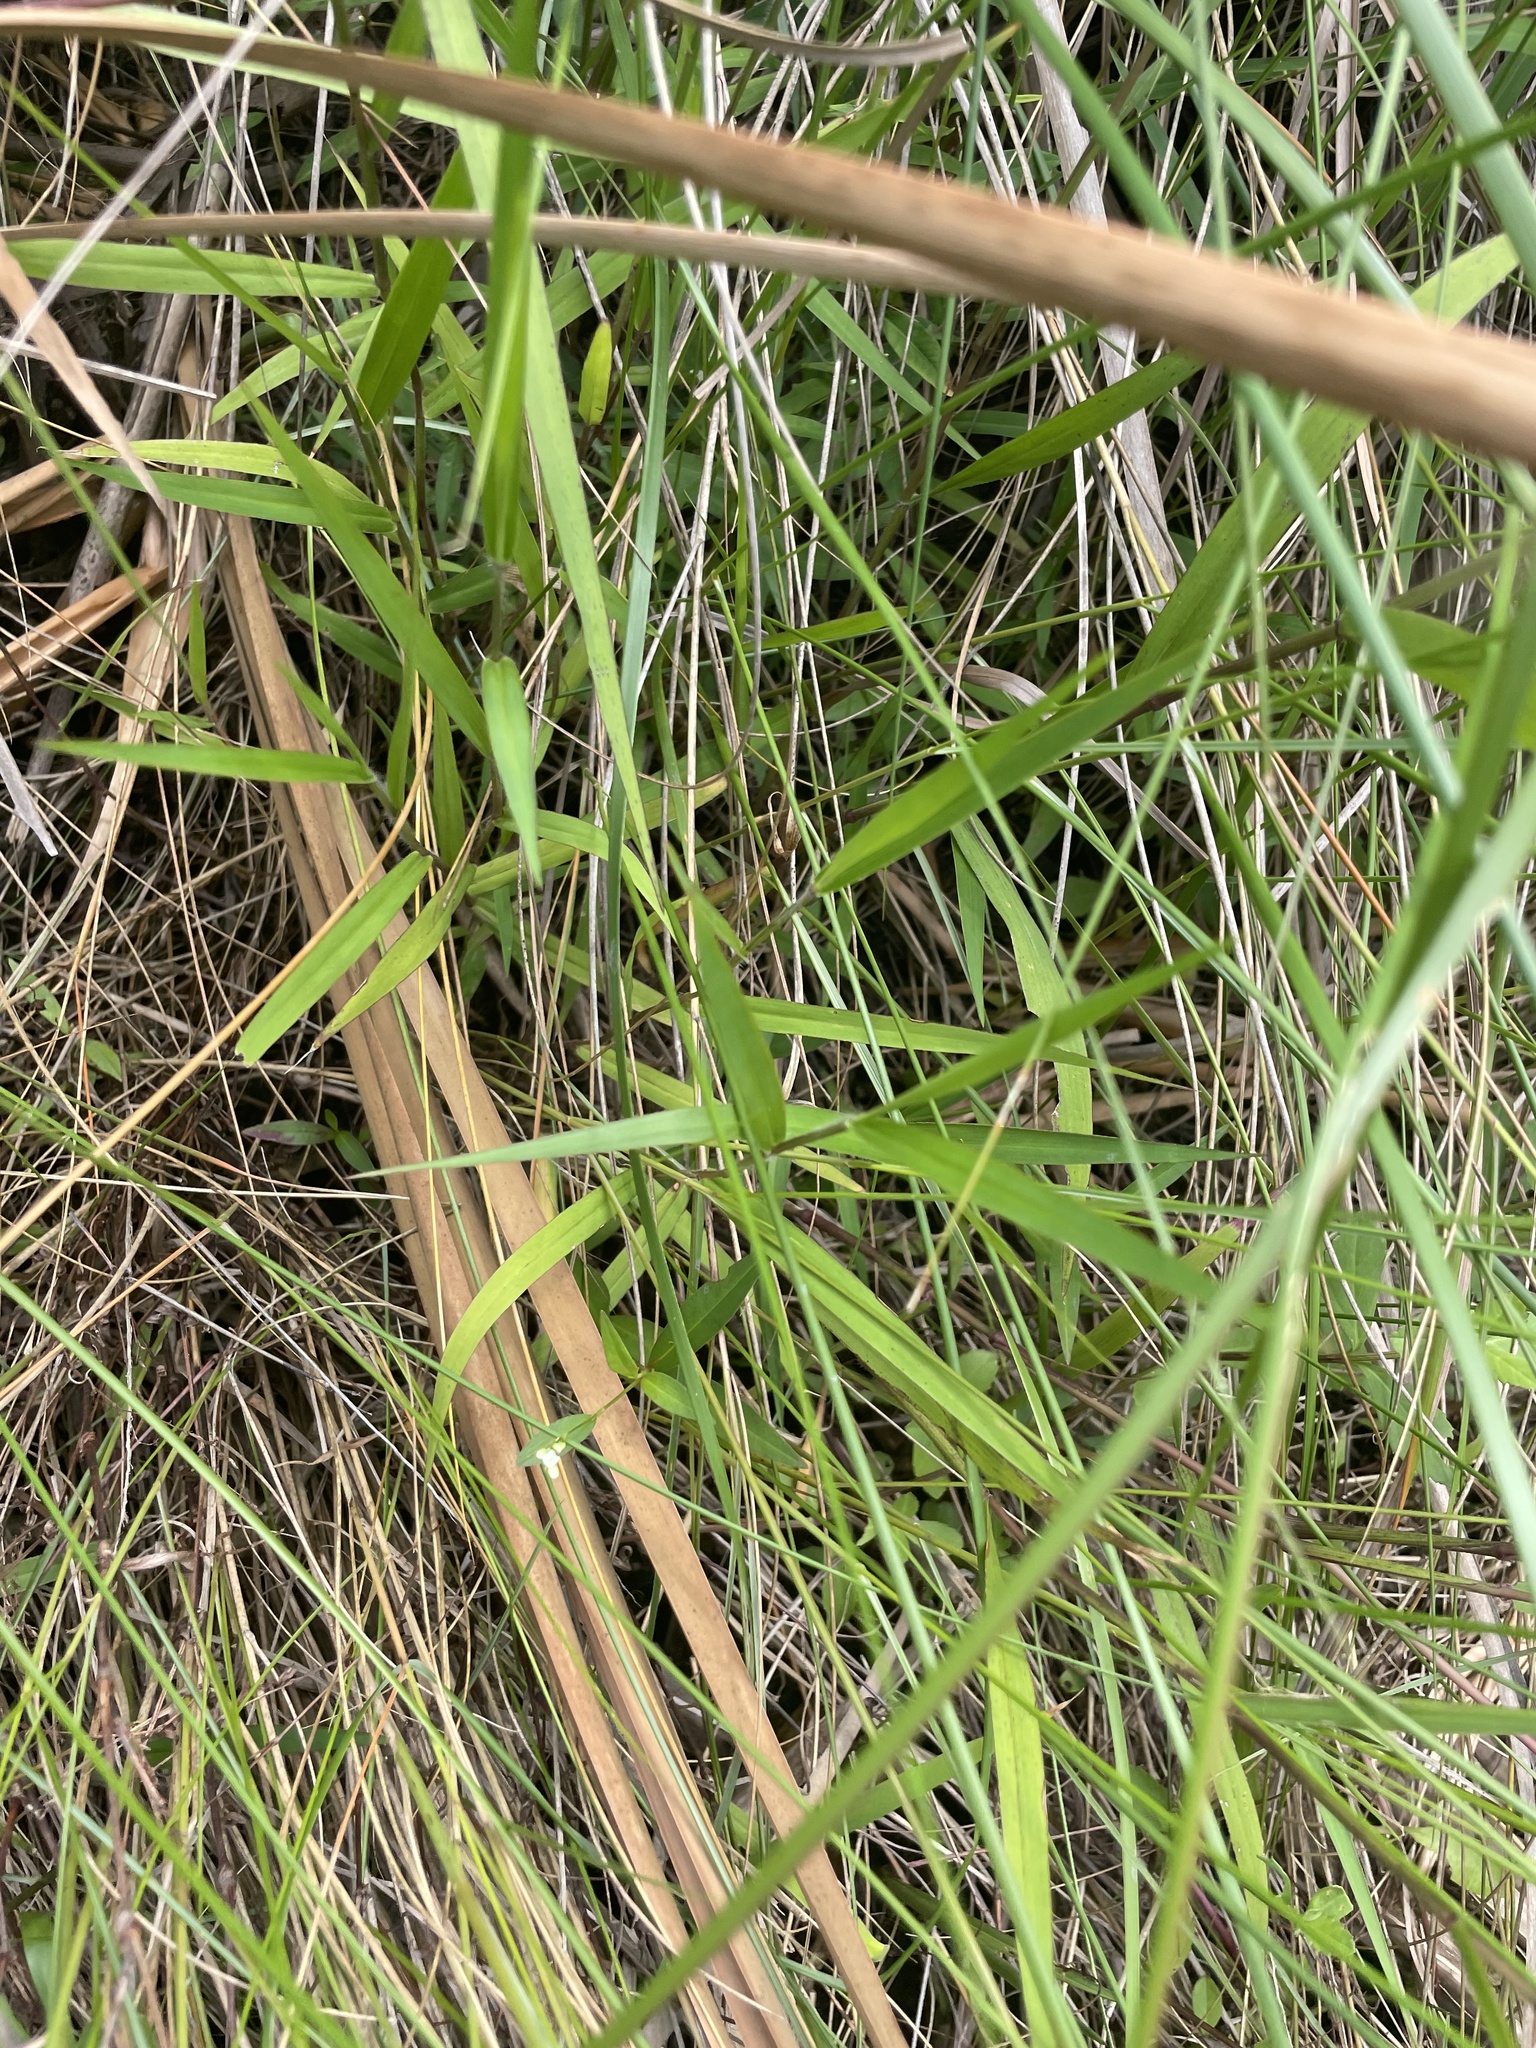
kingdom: Plantae
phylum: Tracheophyta
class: Liliopsida
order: Poales
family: Poaceae
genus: Sacciolepis
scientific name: Sacciolepis striata
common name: American cupscale
